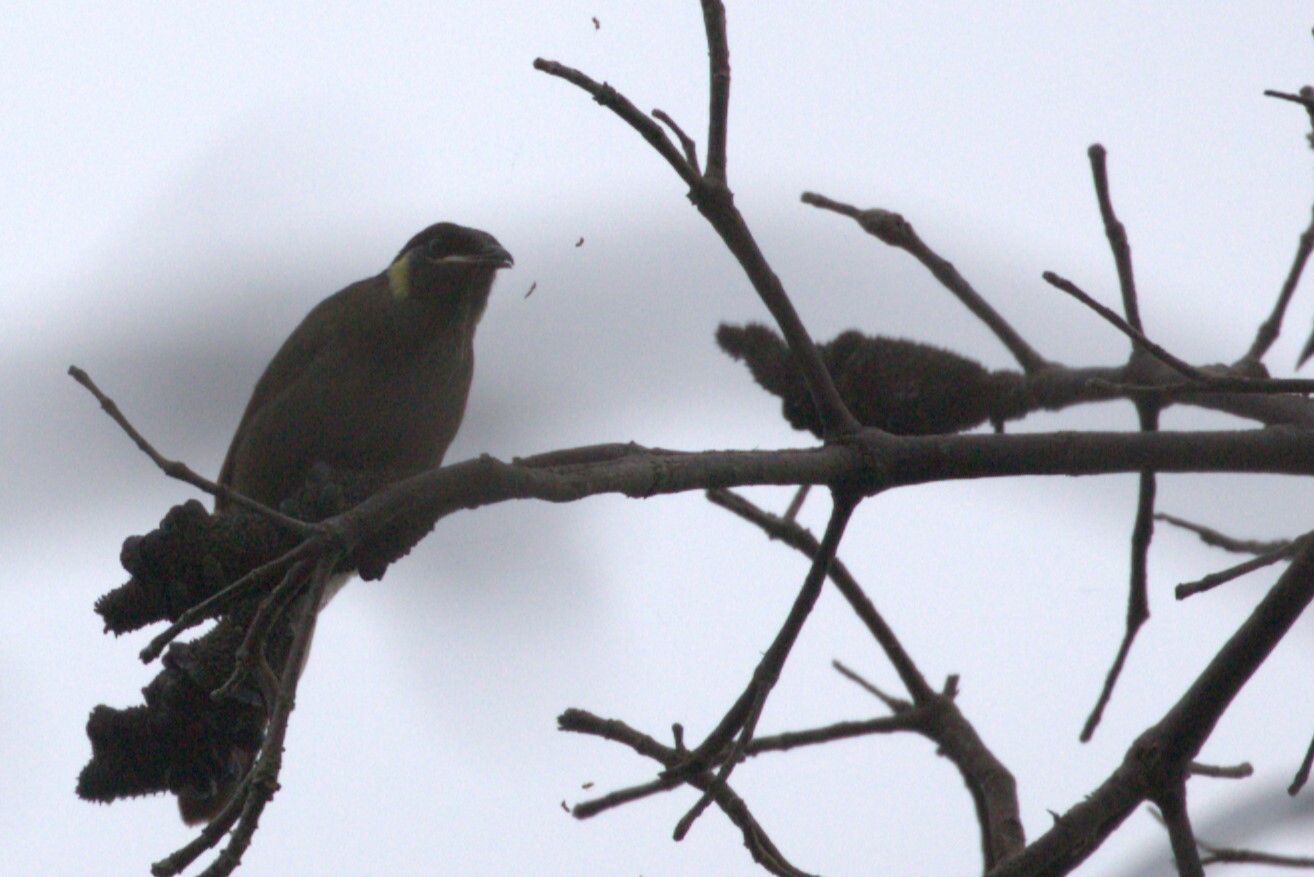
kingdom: Animalia
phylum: Chordata
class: Aves
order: Passeriformes
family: Meliphagidae
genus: Meliphaga
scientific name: Meliphaga lewinii
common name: Lewin's honeyeater
